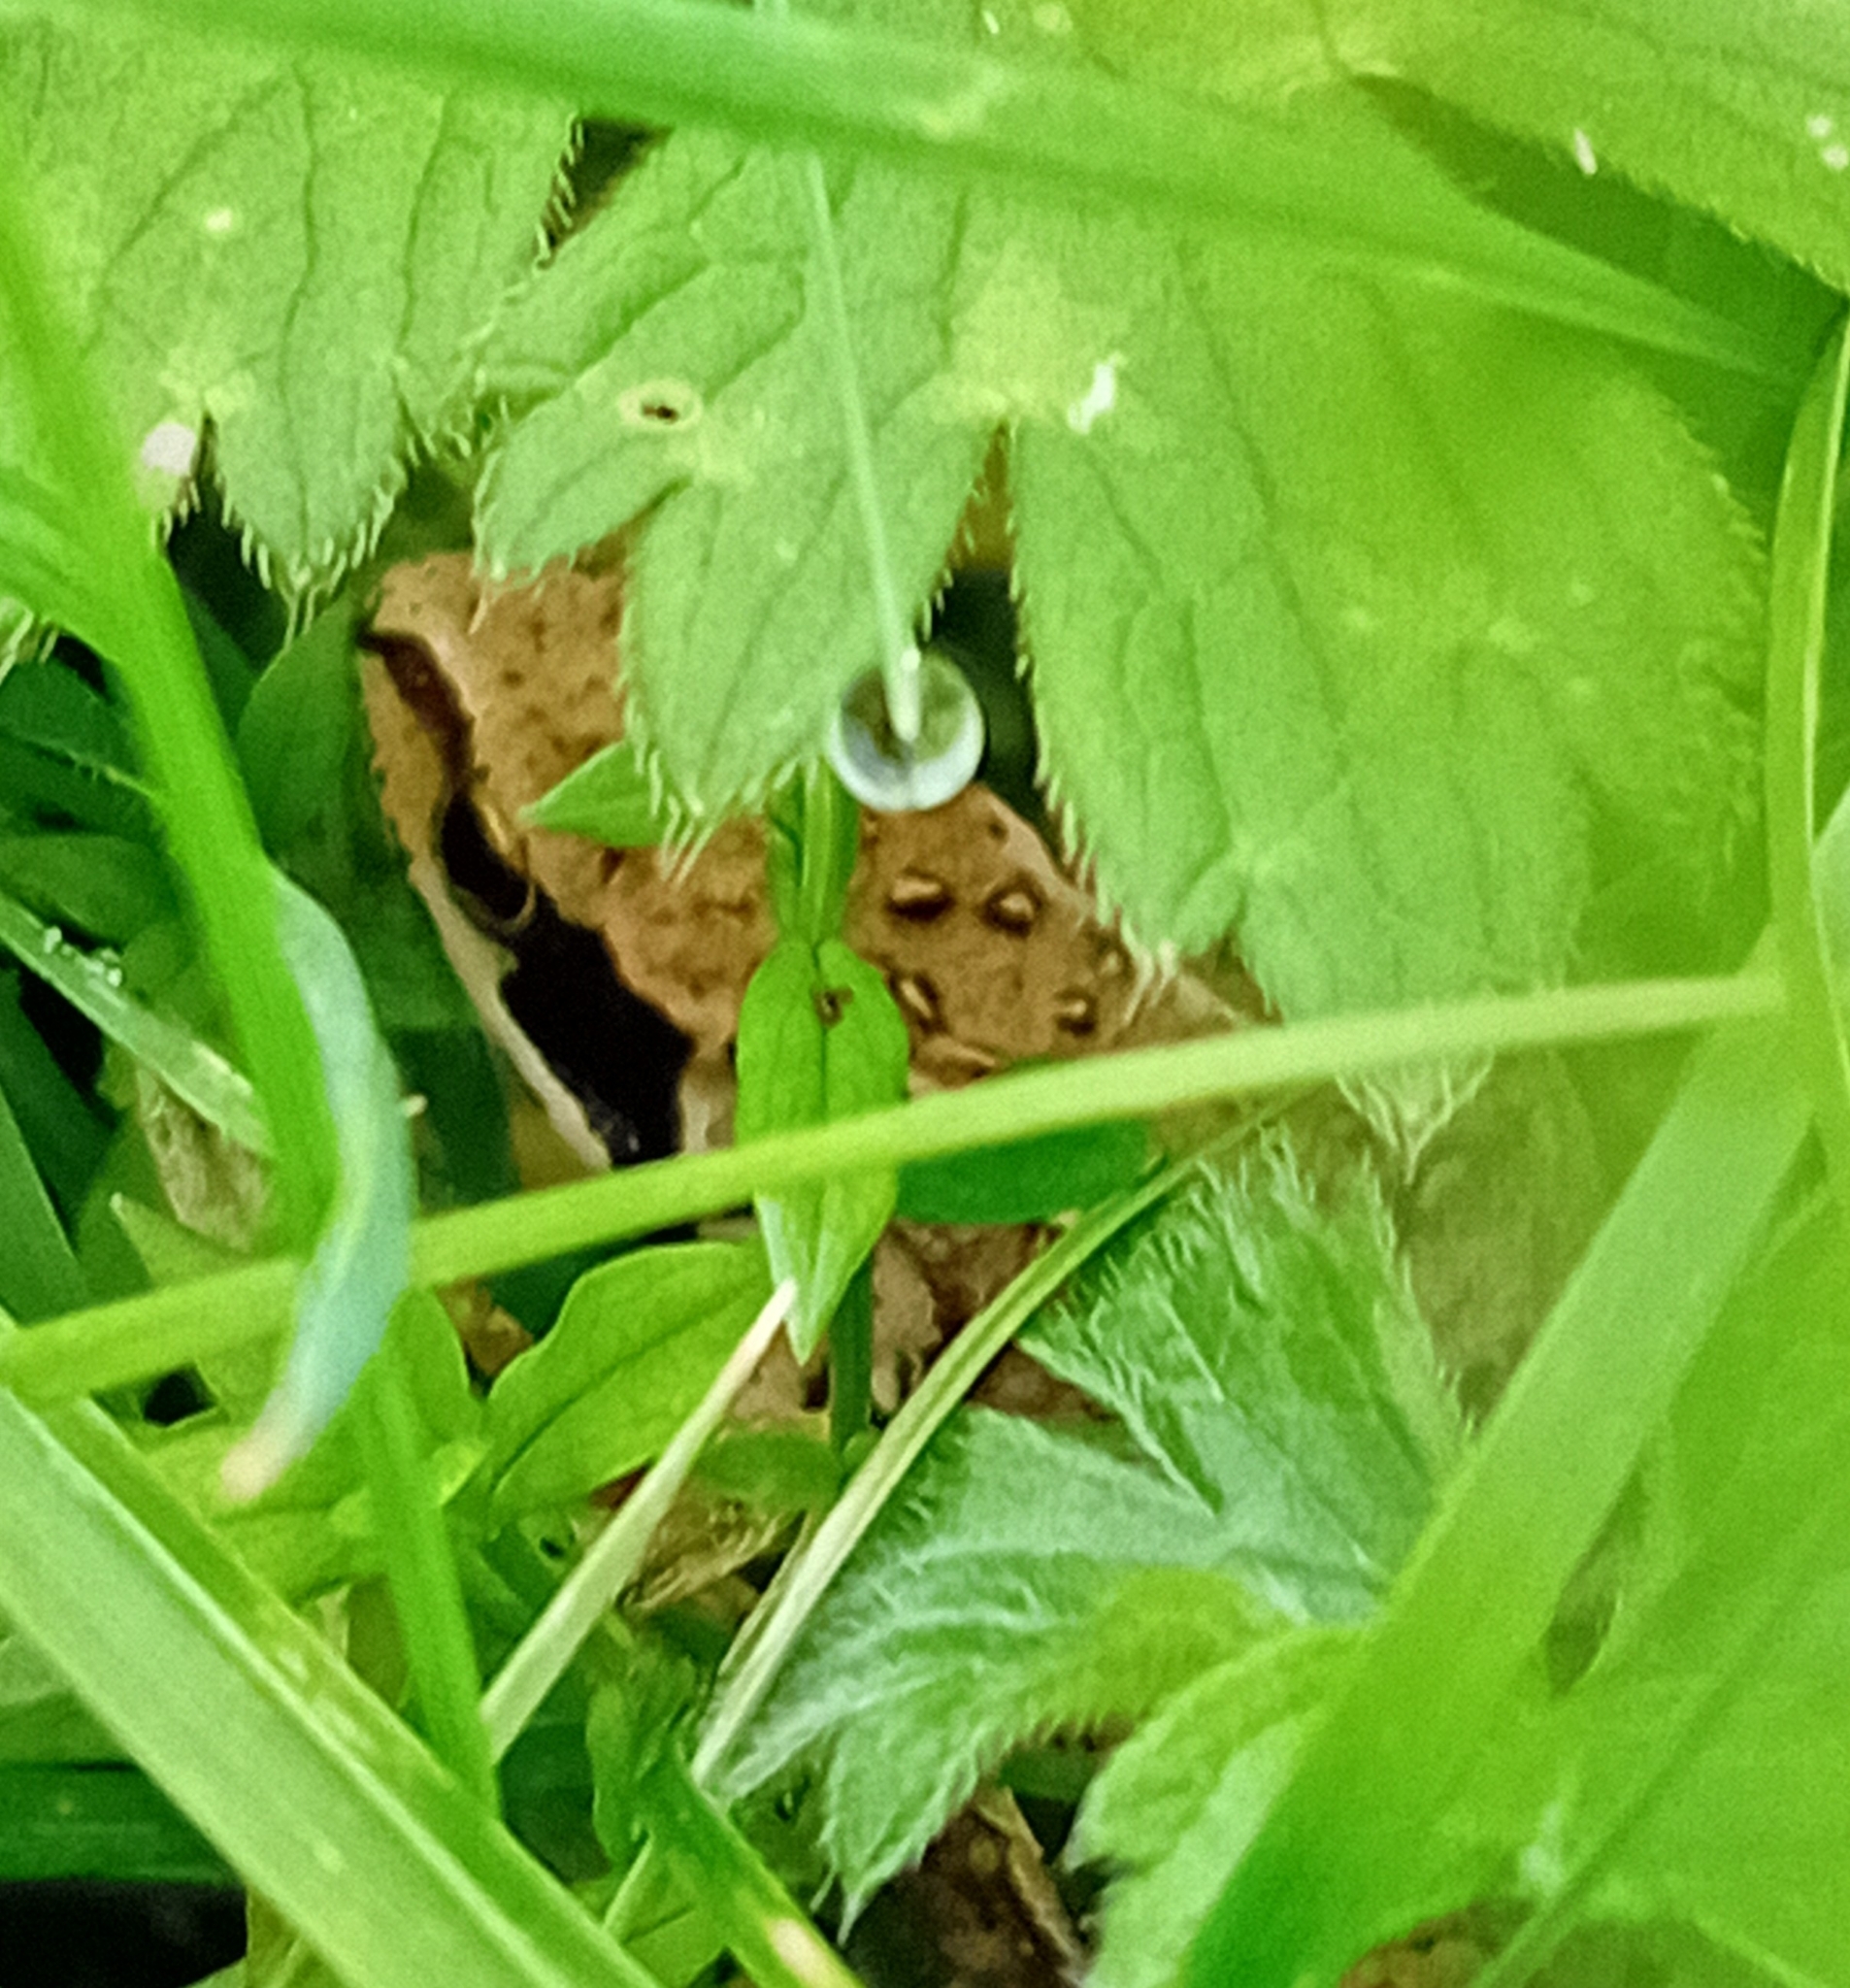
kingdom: Animalia
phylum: Chordata
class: Amphibia
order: Anura
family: Ranidae
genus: Rana
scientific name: Rana temporaria
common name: Common frog
